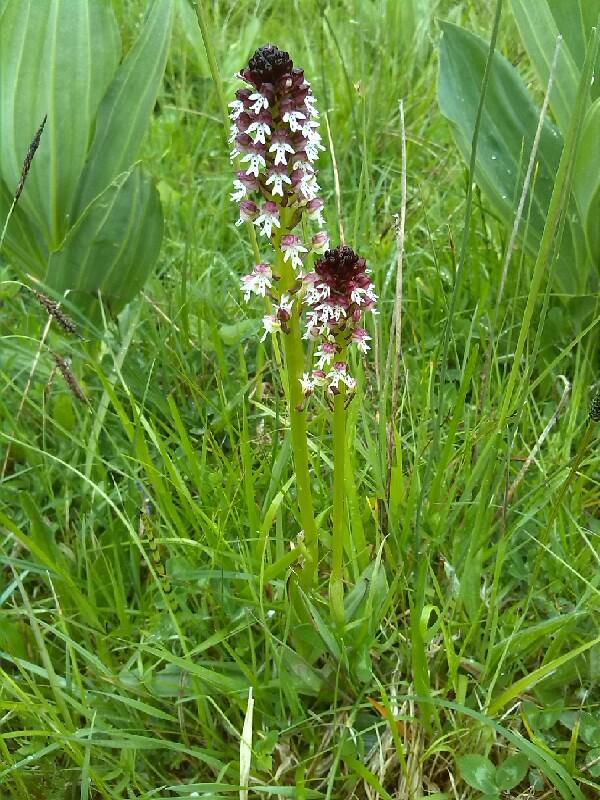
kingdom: Plantae
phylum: Tracheophyta
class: Liliopsida
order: Asparagales
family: Orchidaceae
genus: Neotinea
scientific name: Neotinea ustulata
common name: Burnt orchid
